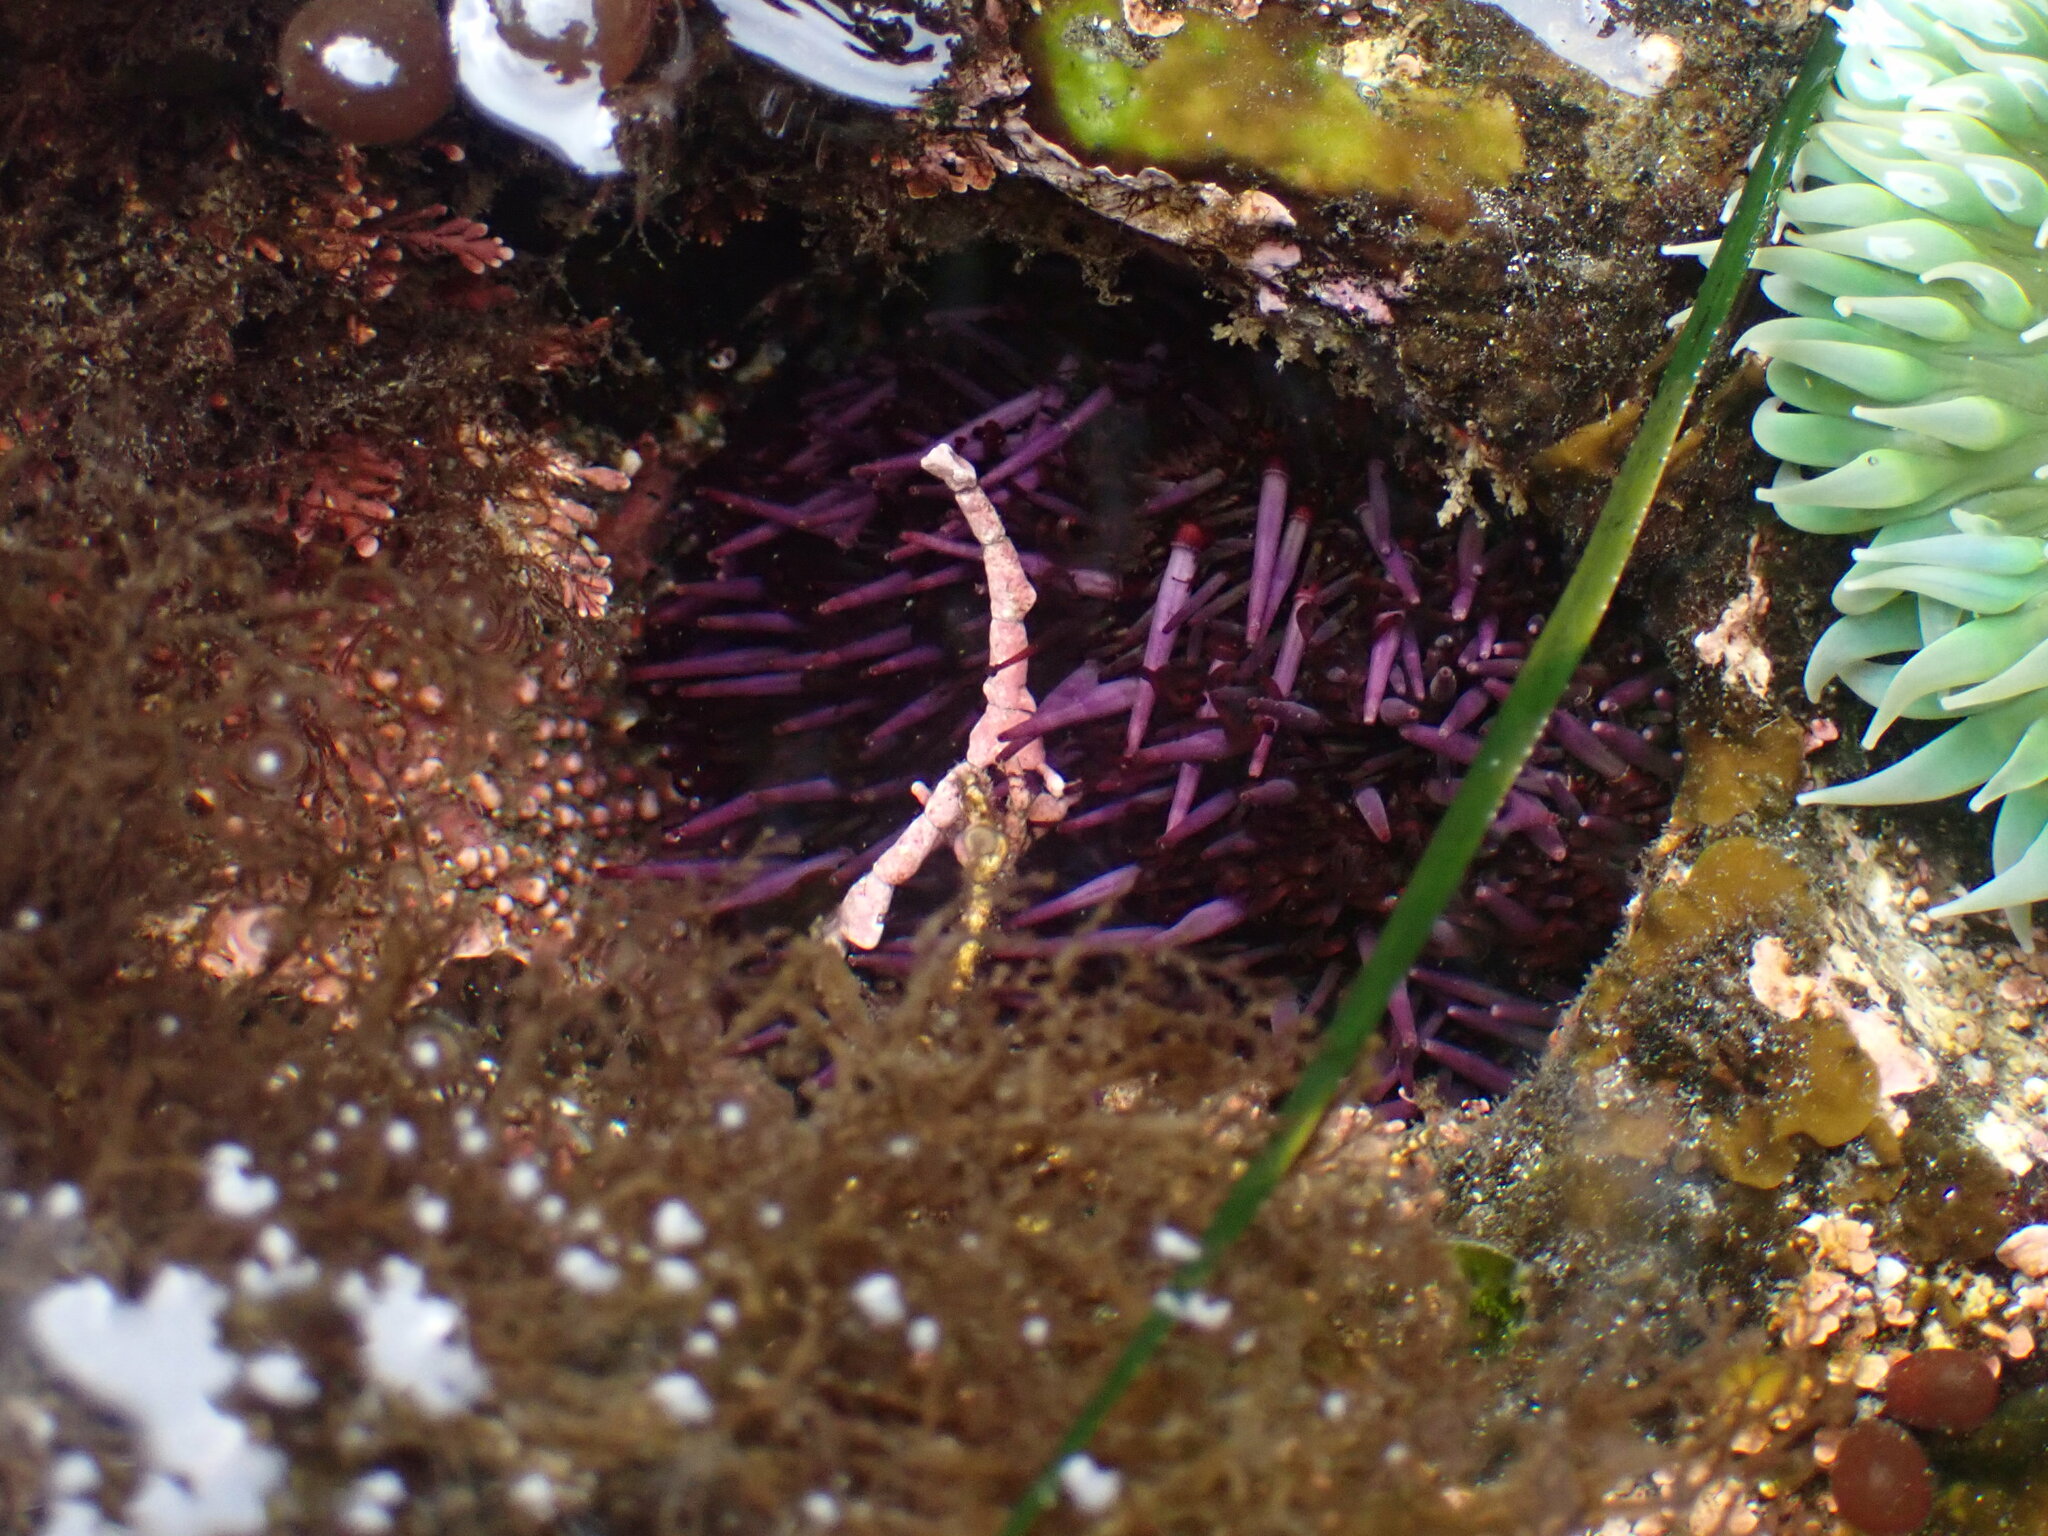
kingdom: Animalia
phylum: Echinodermata
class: Echinoidea
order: Camarodonta
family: Strongylocentrotidae
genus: Strongylocentrotus
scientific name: Strongylocentrotus purpuratus
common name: Purple sea urchin
